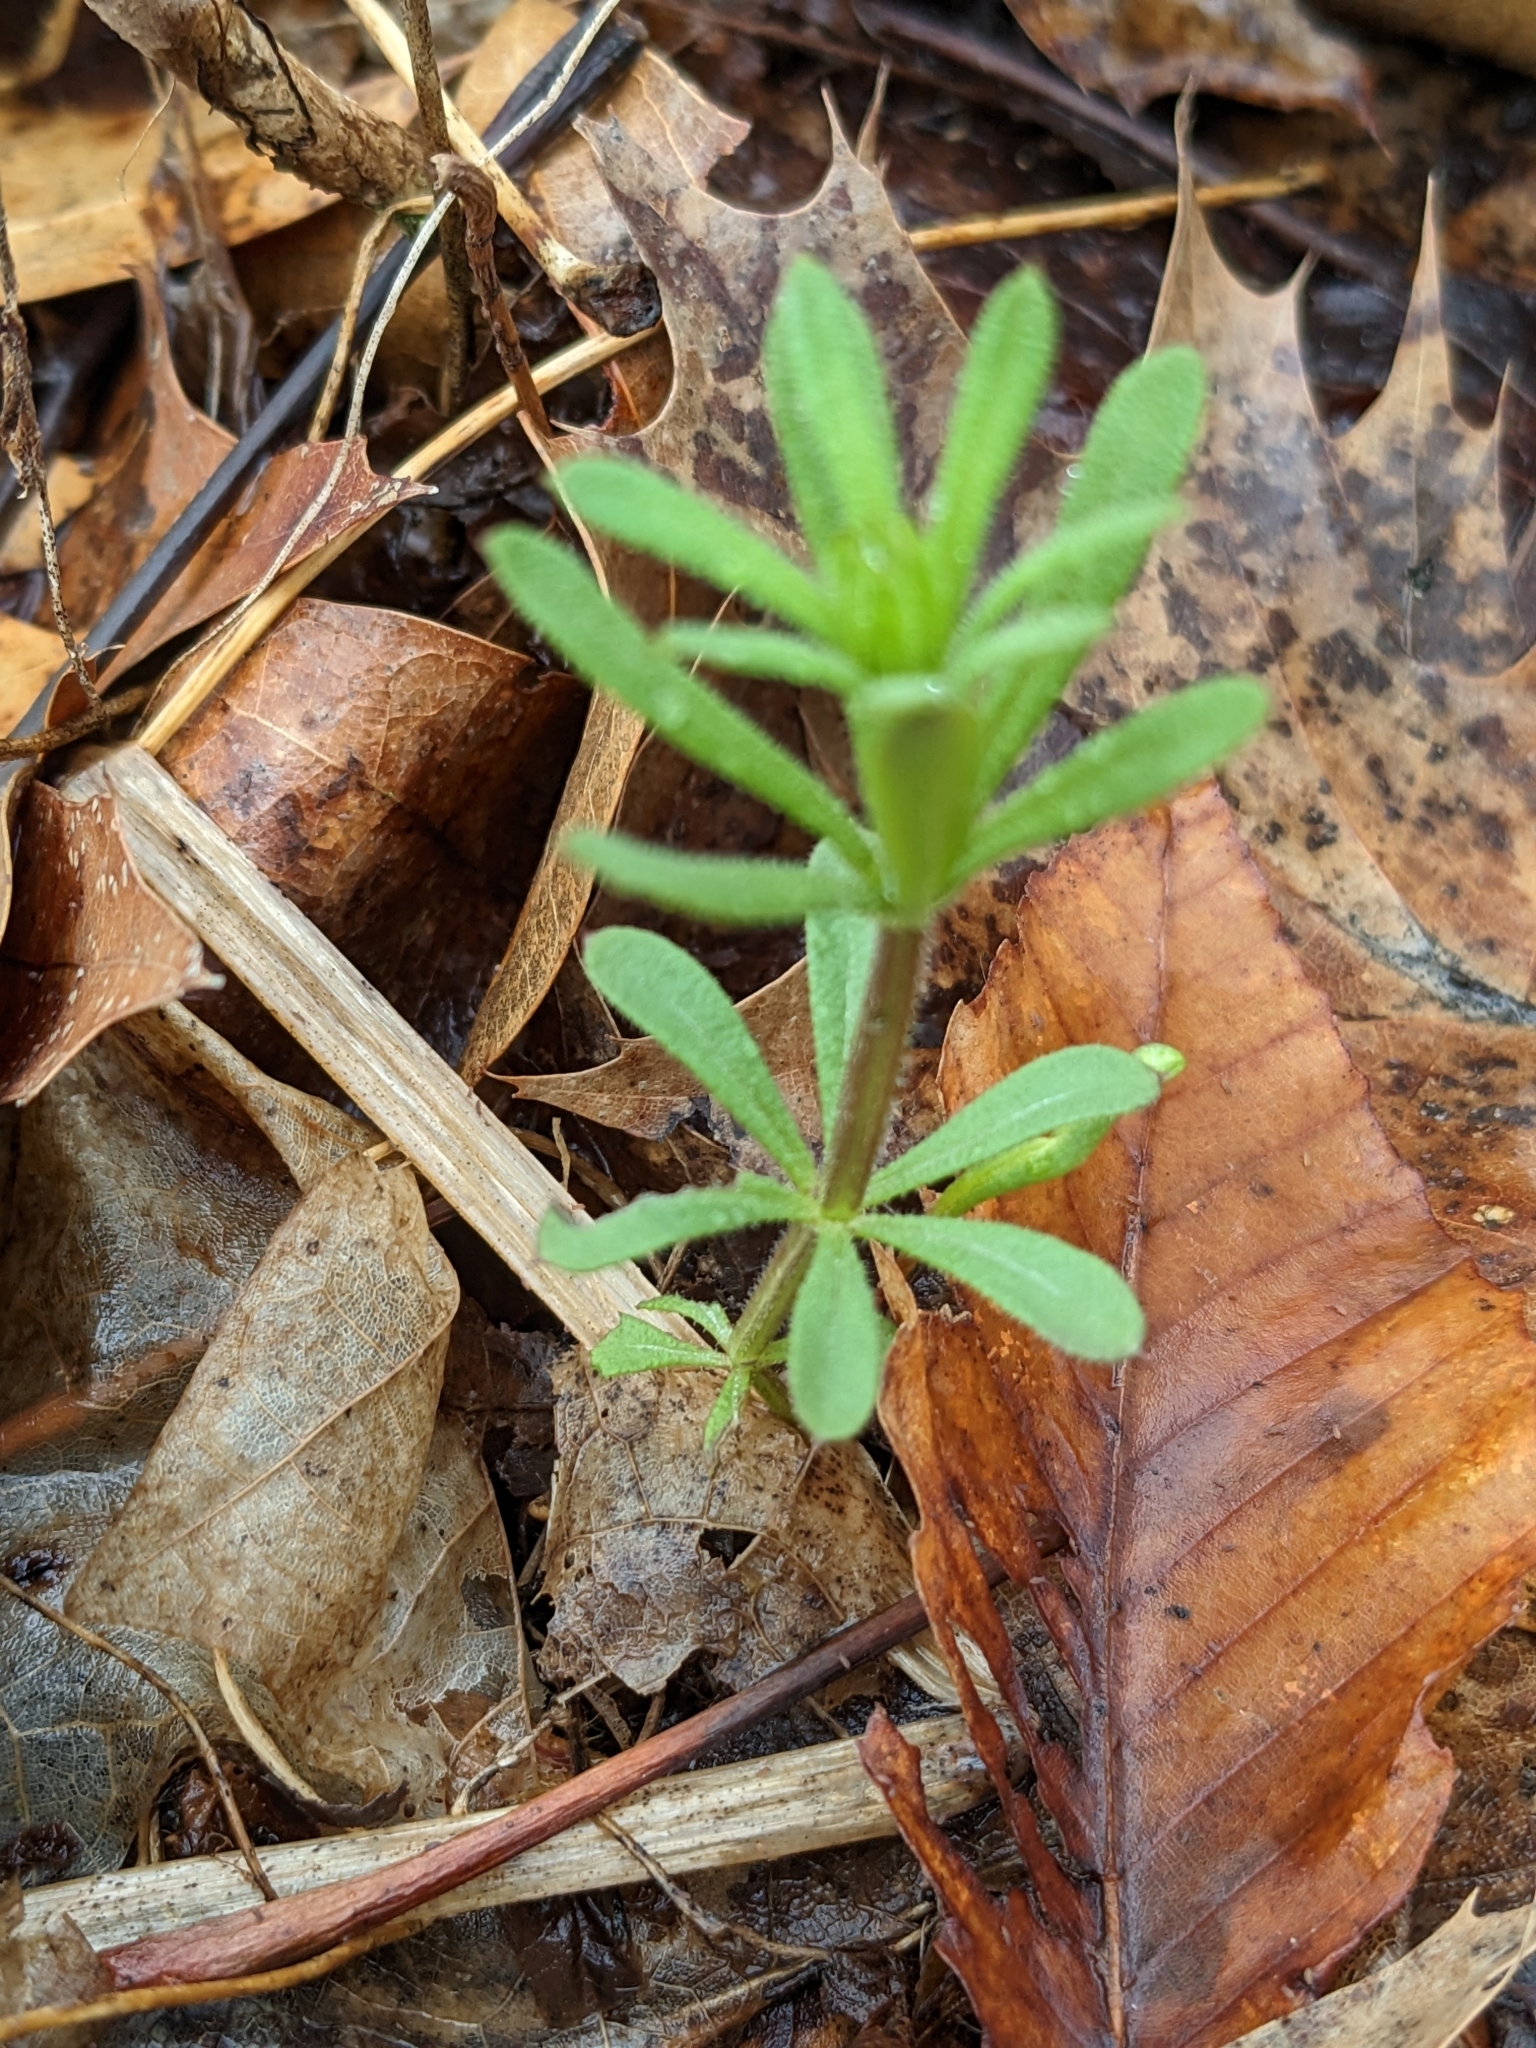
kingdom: Plantae
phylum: Tracheophyta
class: Magnoliopsida
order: Gentianales
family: Rubiaceae
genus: Galium
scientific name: Galium aparine
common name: Cleavers
